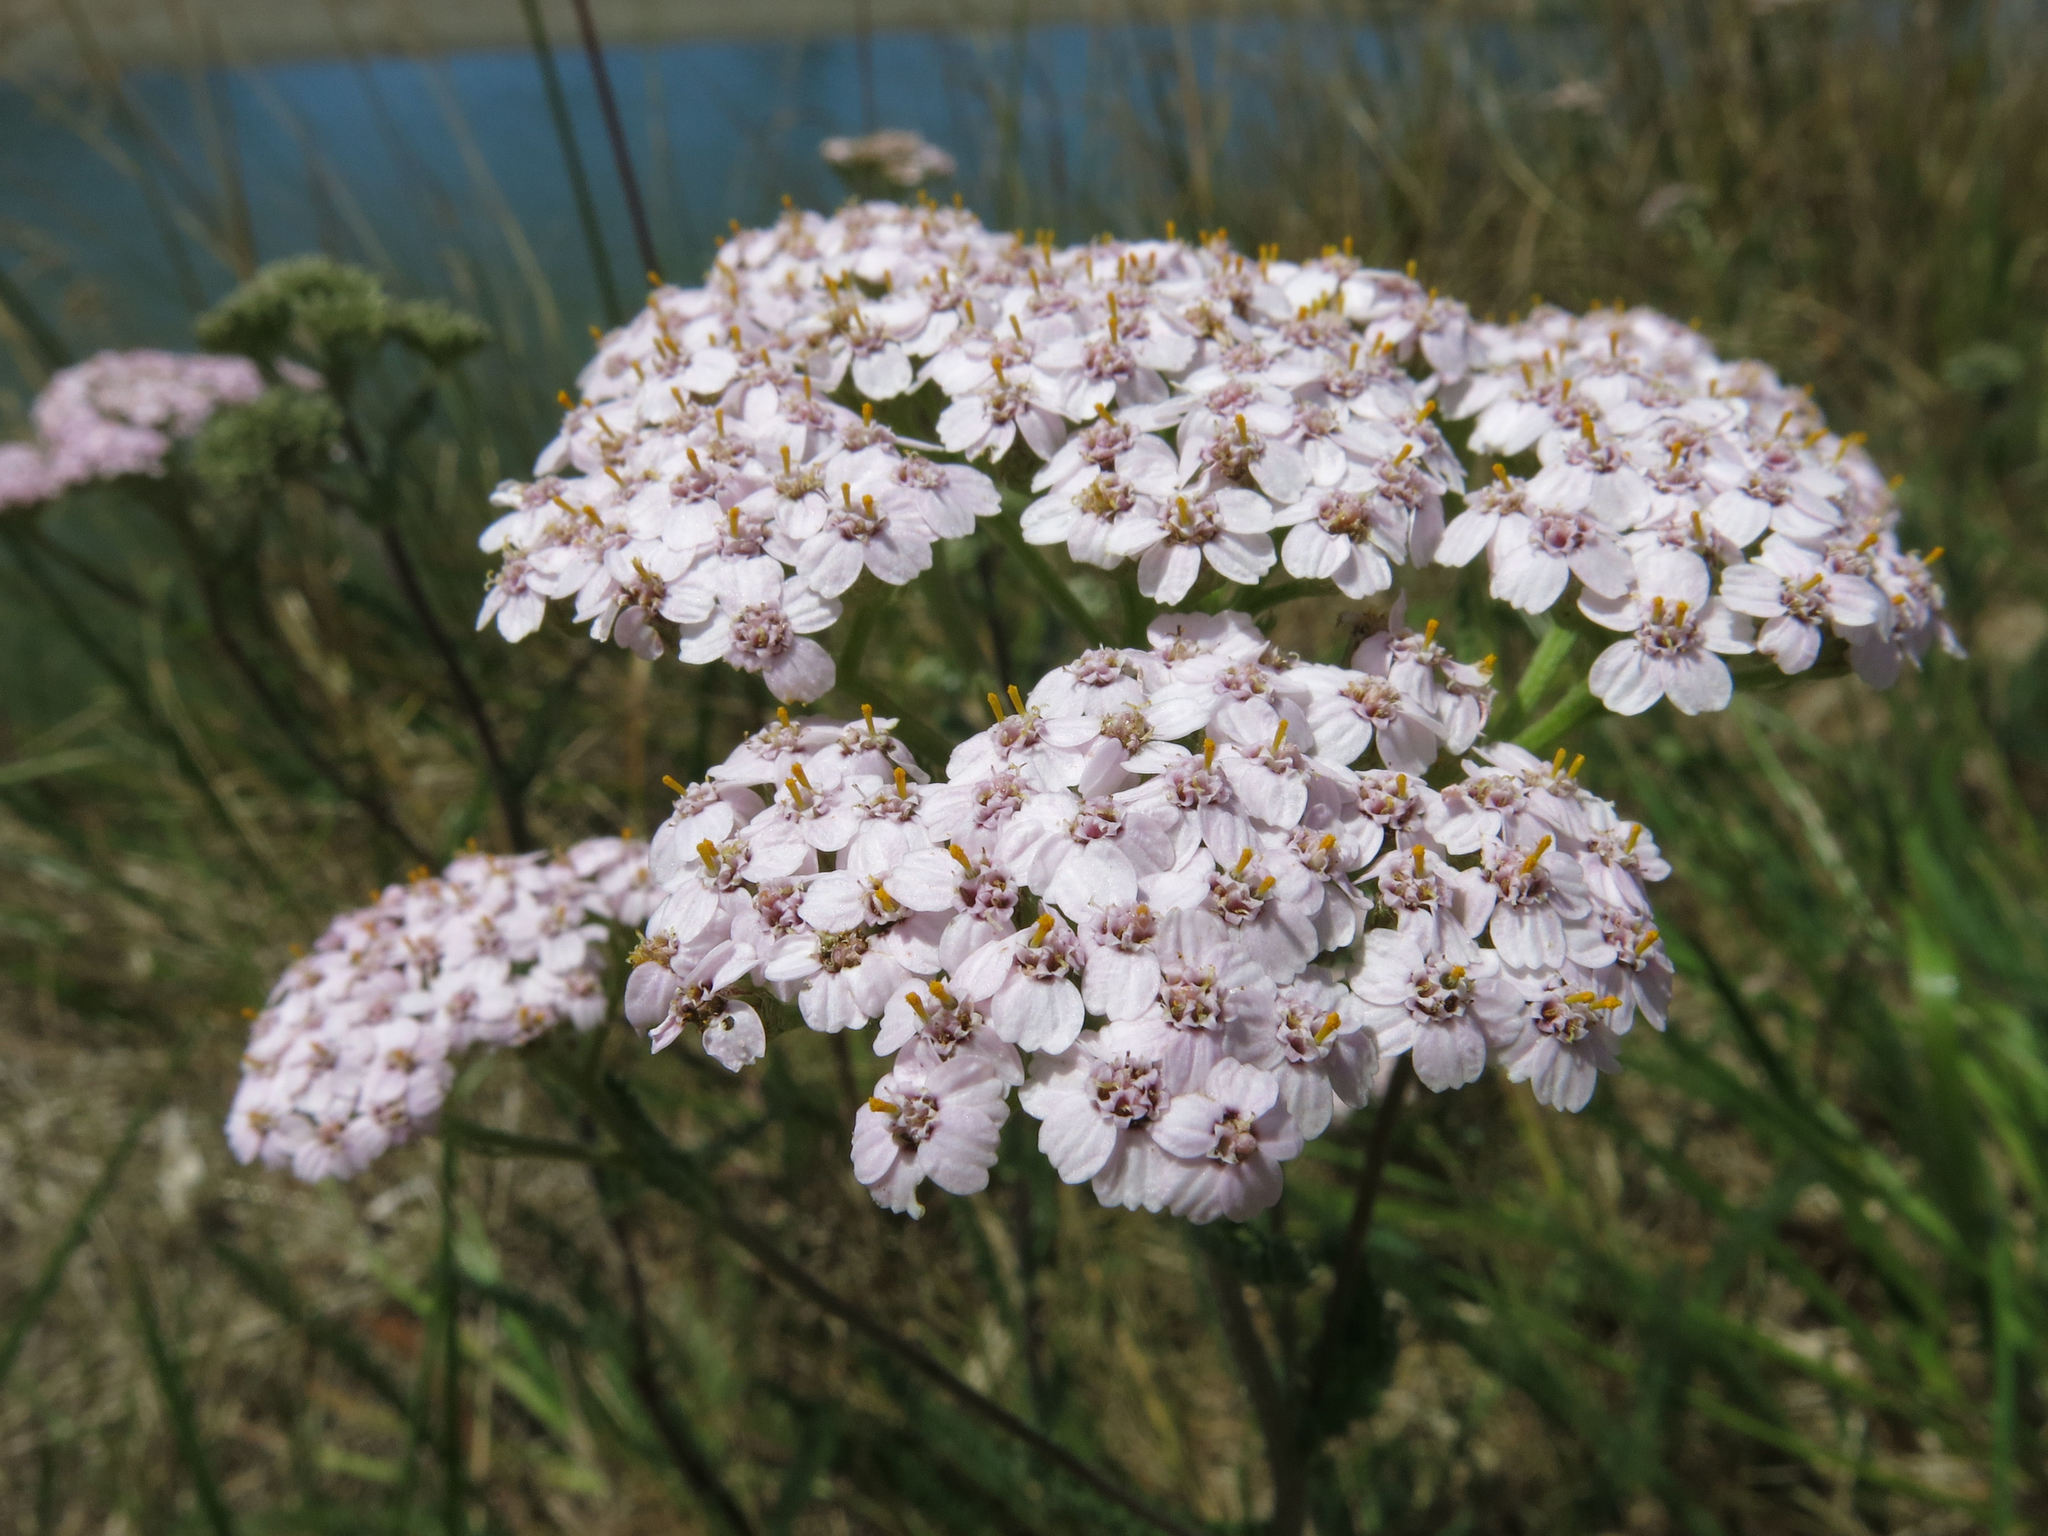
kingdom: Plantae
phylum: Tracheophyta
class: Magnoliopsida
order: Asterales
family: Asteraceae
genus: Achillea
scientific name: Achillea millefolium
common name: Yarrow
